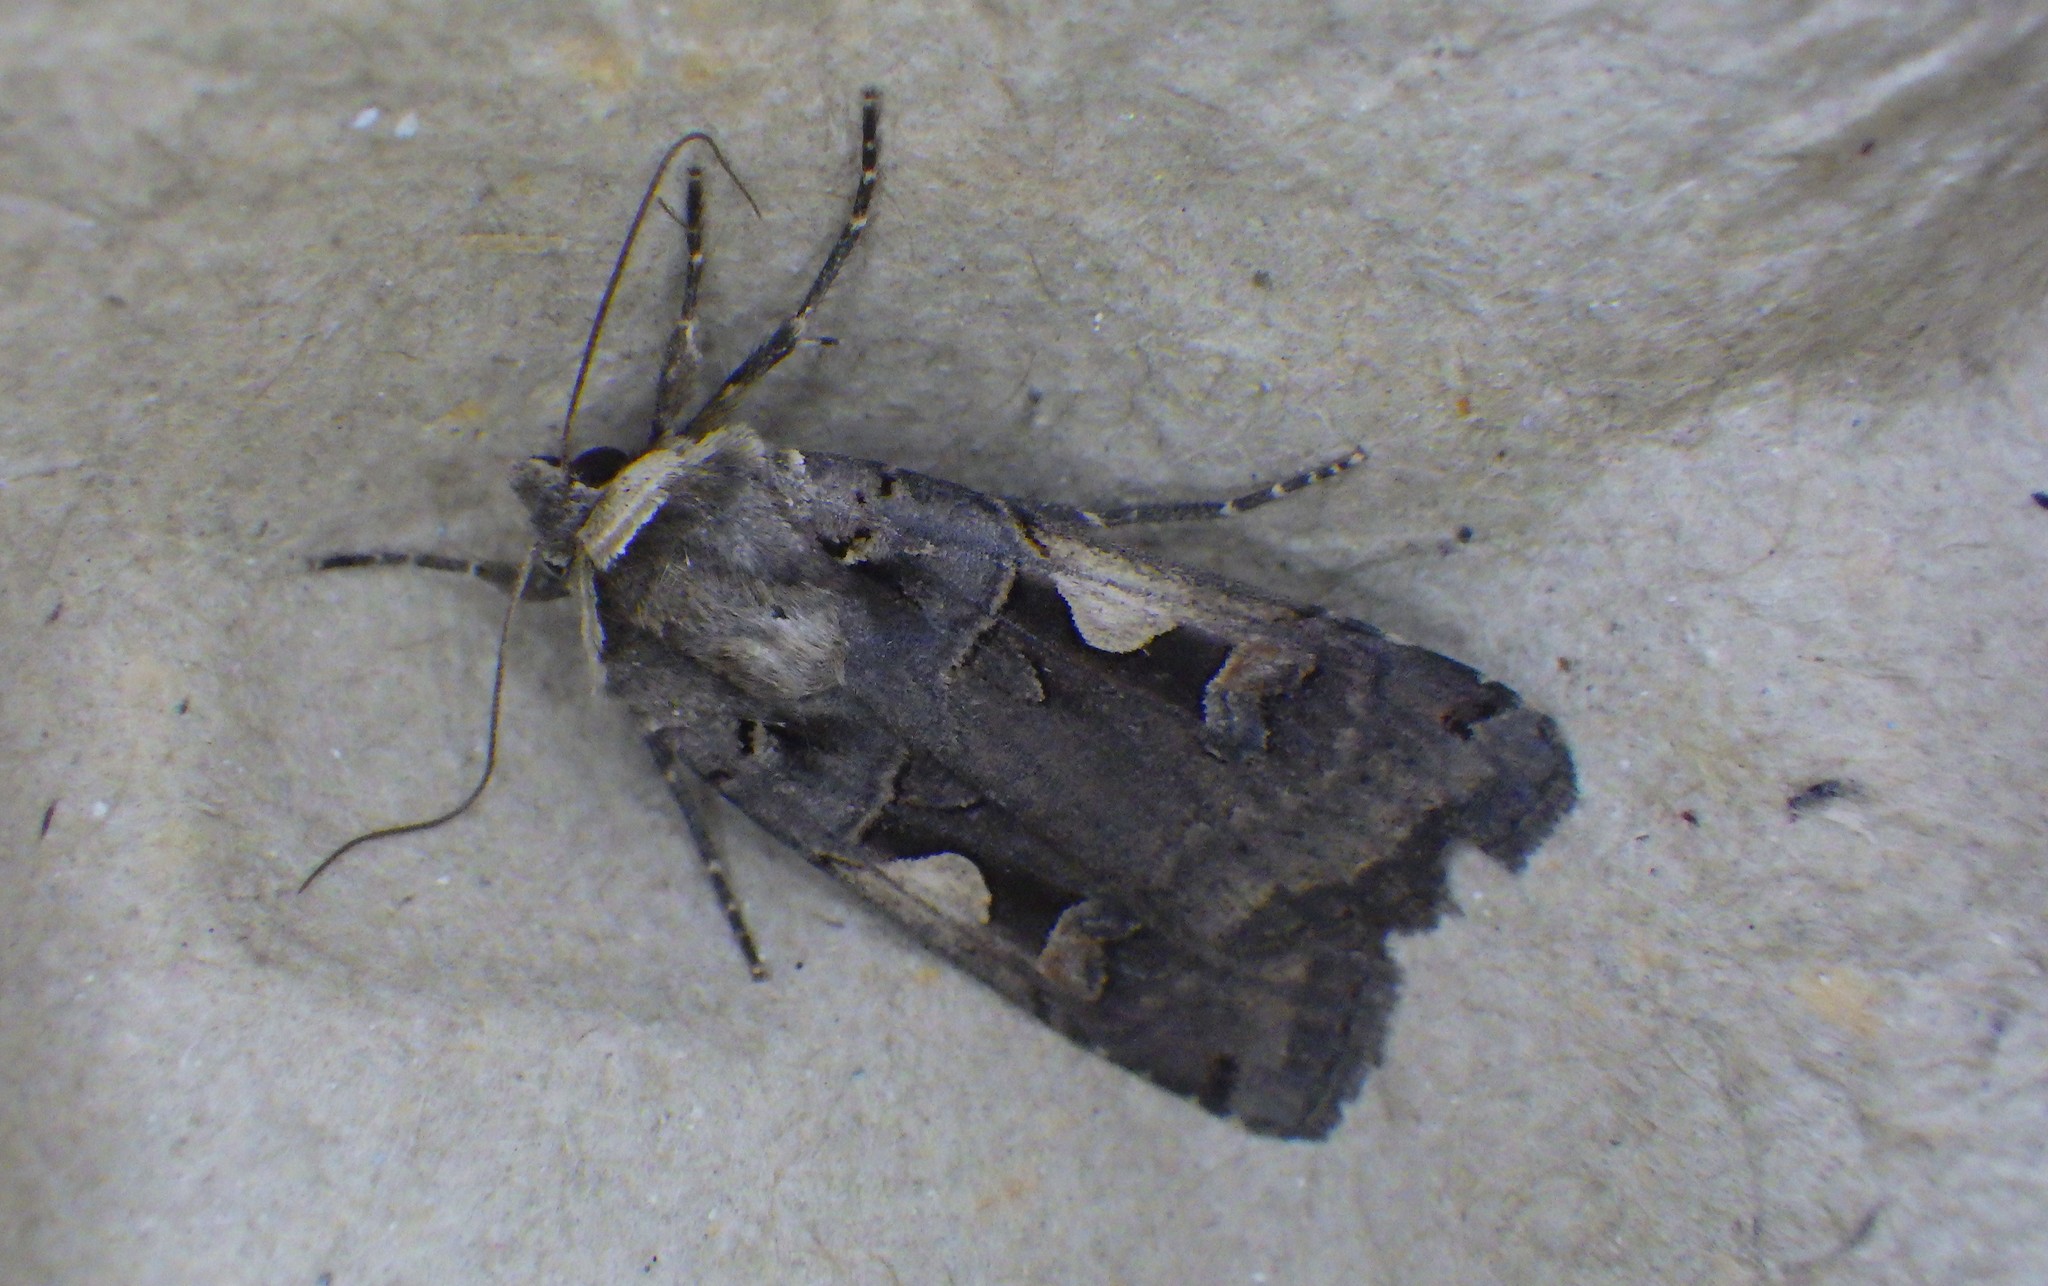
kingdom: Animalia
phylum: Arthropoda
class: Insecta
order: Lepidoptera
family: Noctuidae
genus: Xestia
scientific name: Xestia c-nigrum
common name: Setaceous hebrew character
